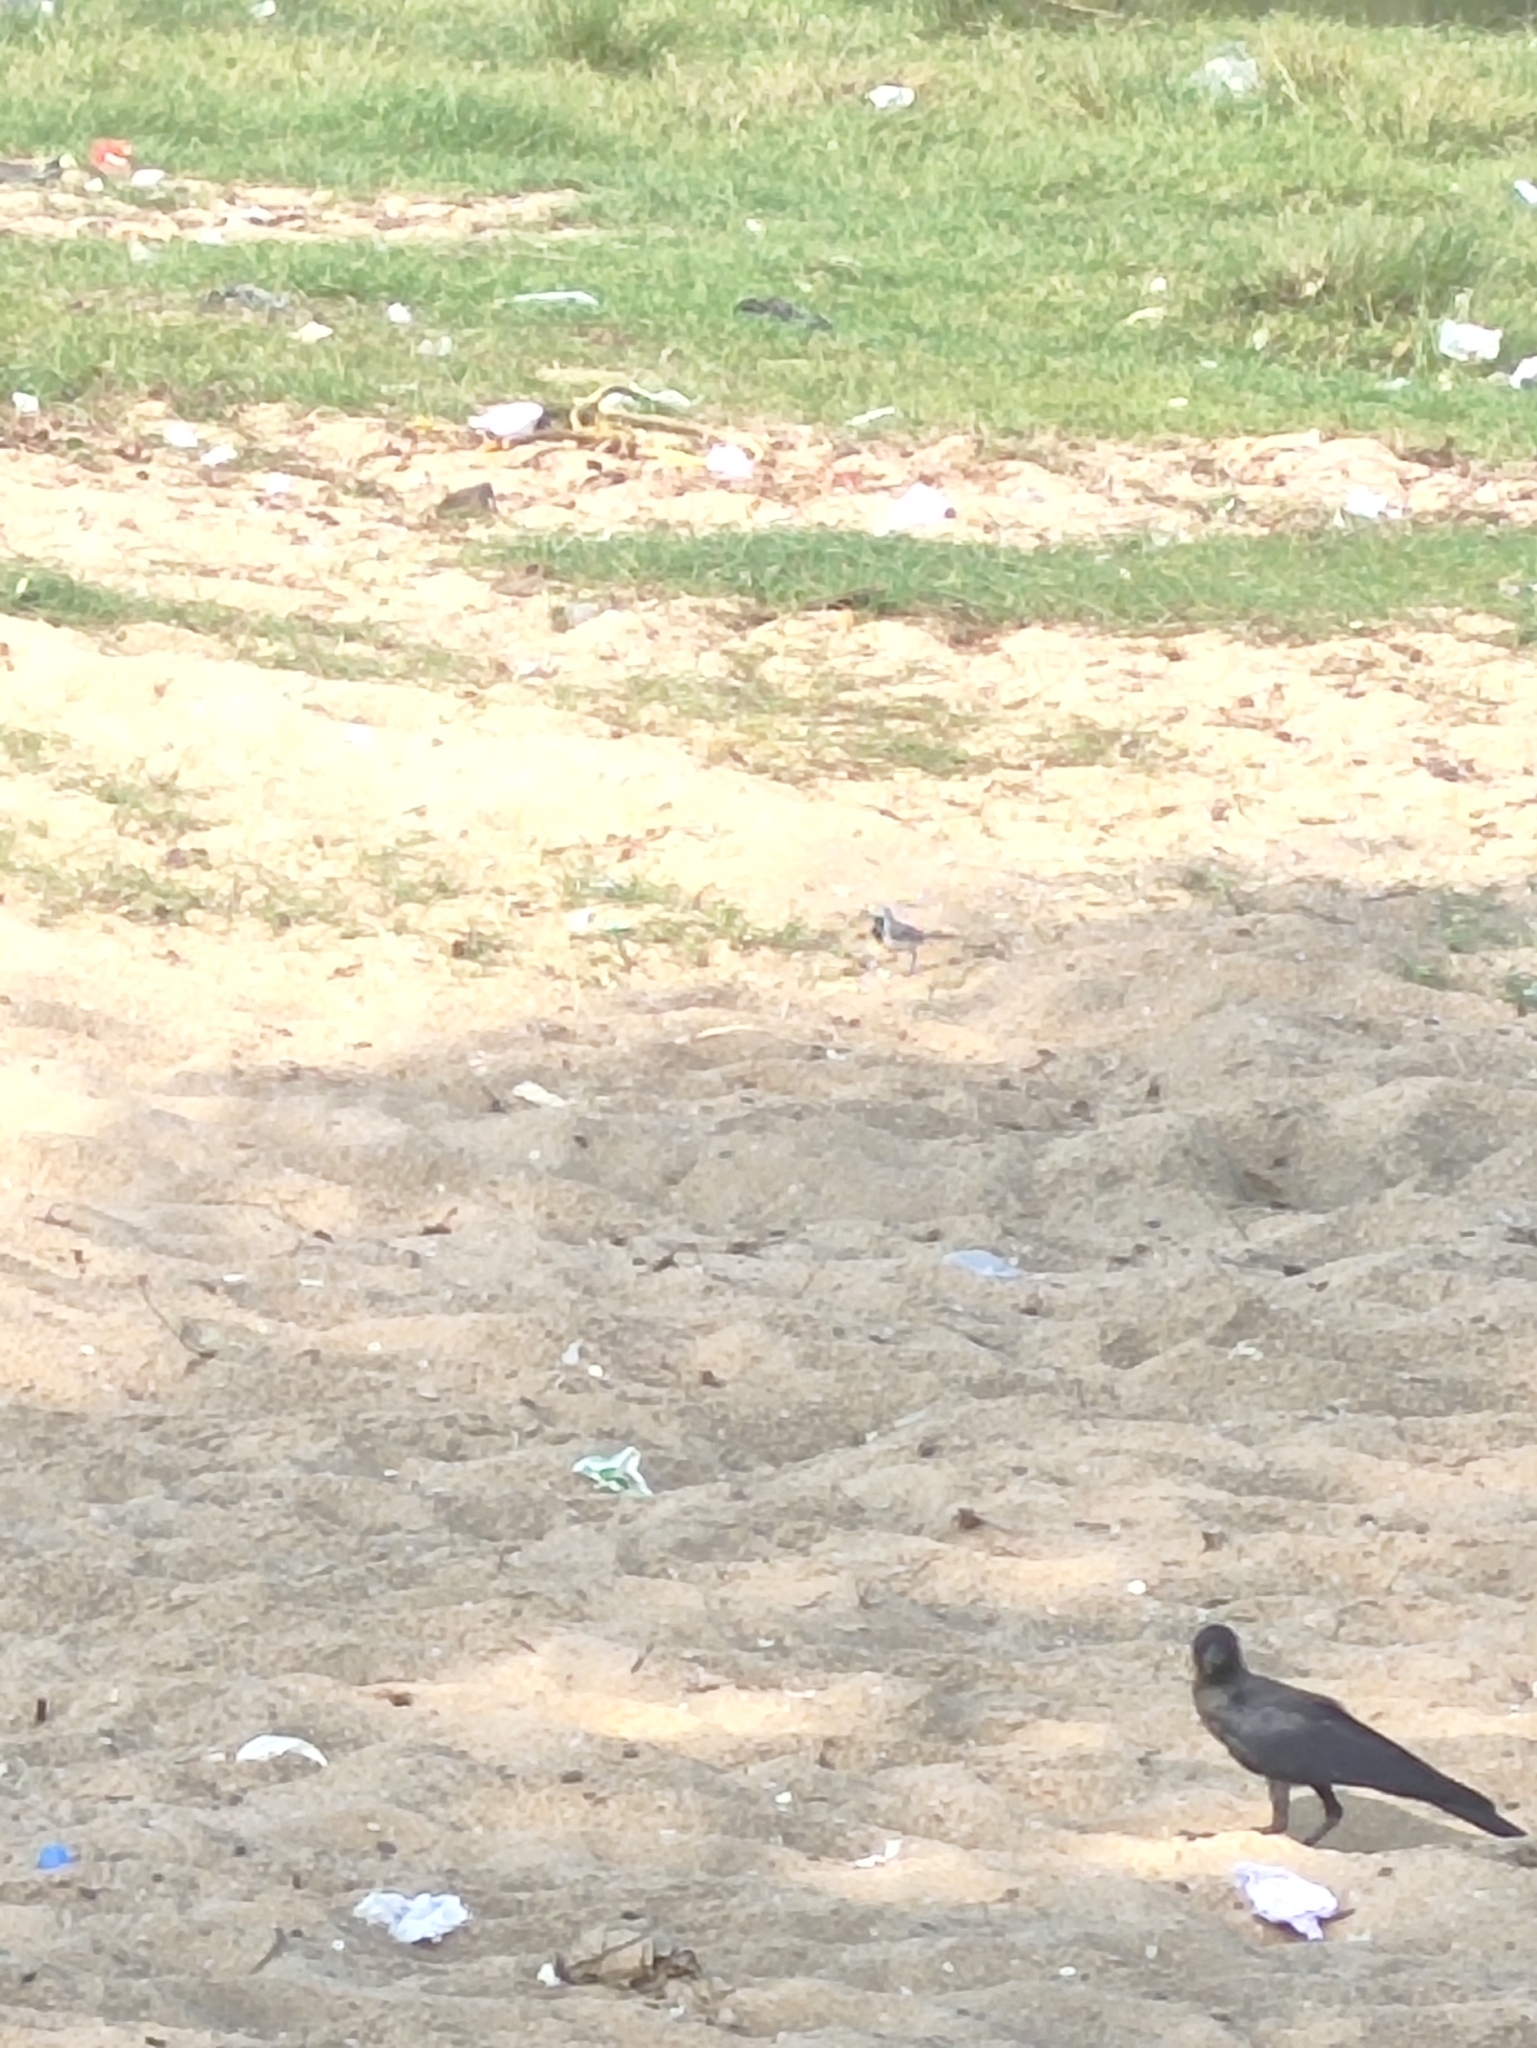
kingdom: Animalia
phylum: Chordata
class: Aves
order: Passeriformes
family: Corvidae
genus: Corvus
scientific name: Corvus splendens
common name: House crow
